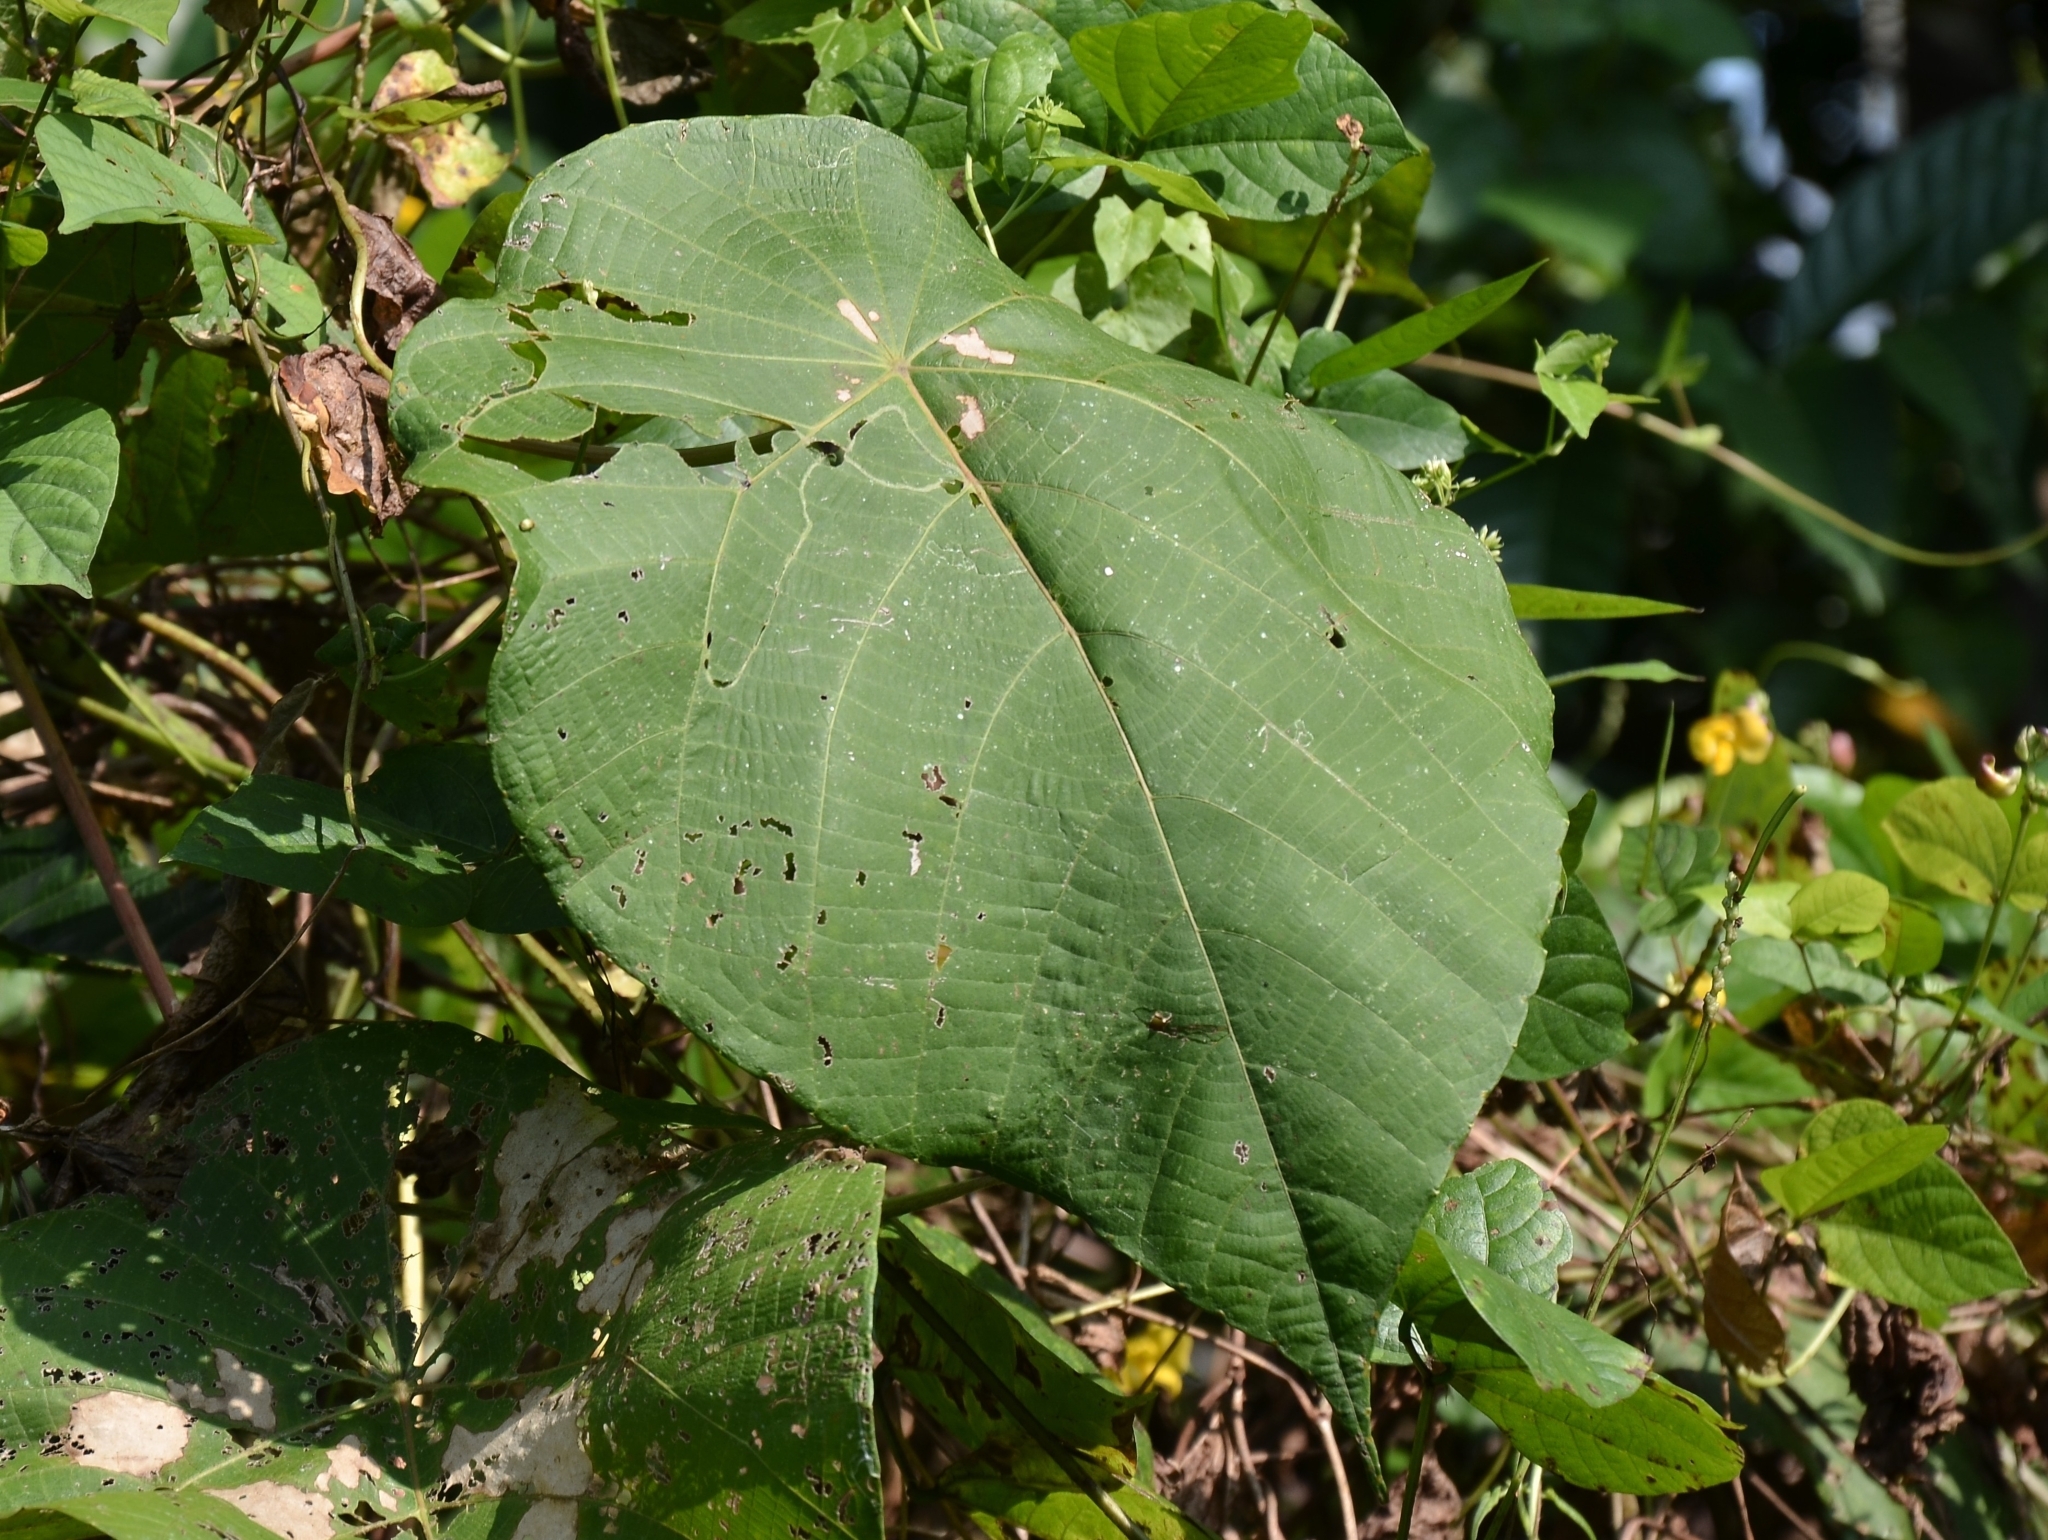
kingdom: Plantae
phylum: Tracheophyta
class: Magnoliopsida
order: Malpighiales
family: Euphorbiaceae
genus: Macaranga
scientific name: Macaranga peltata
